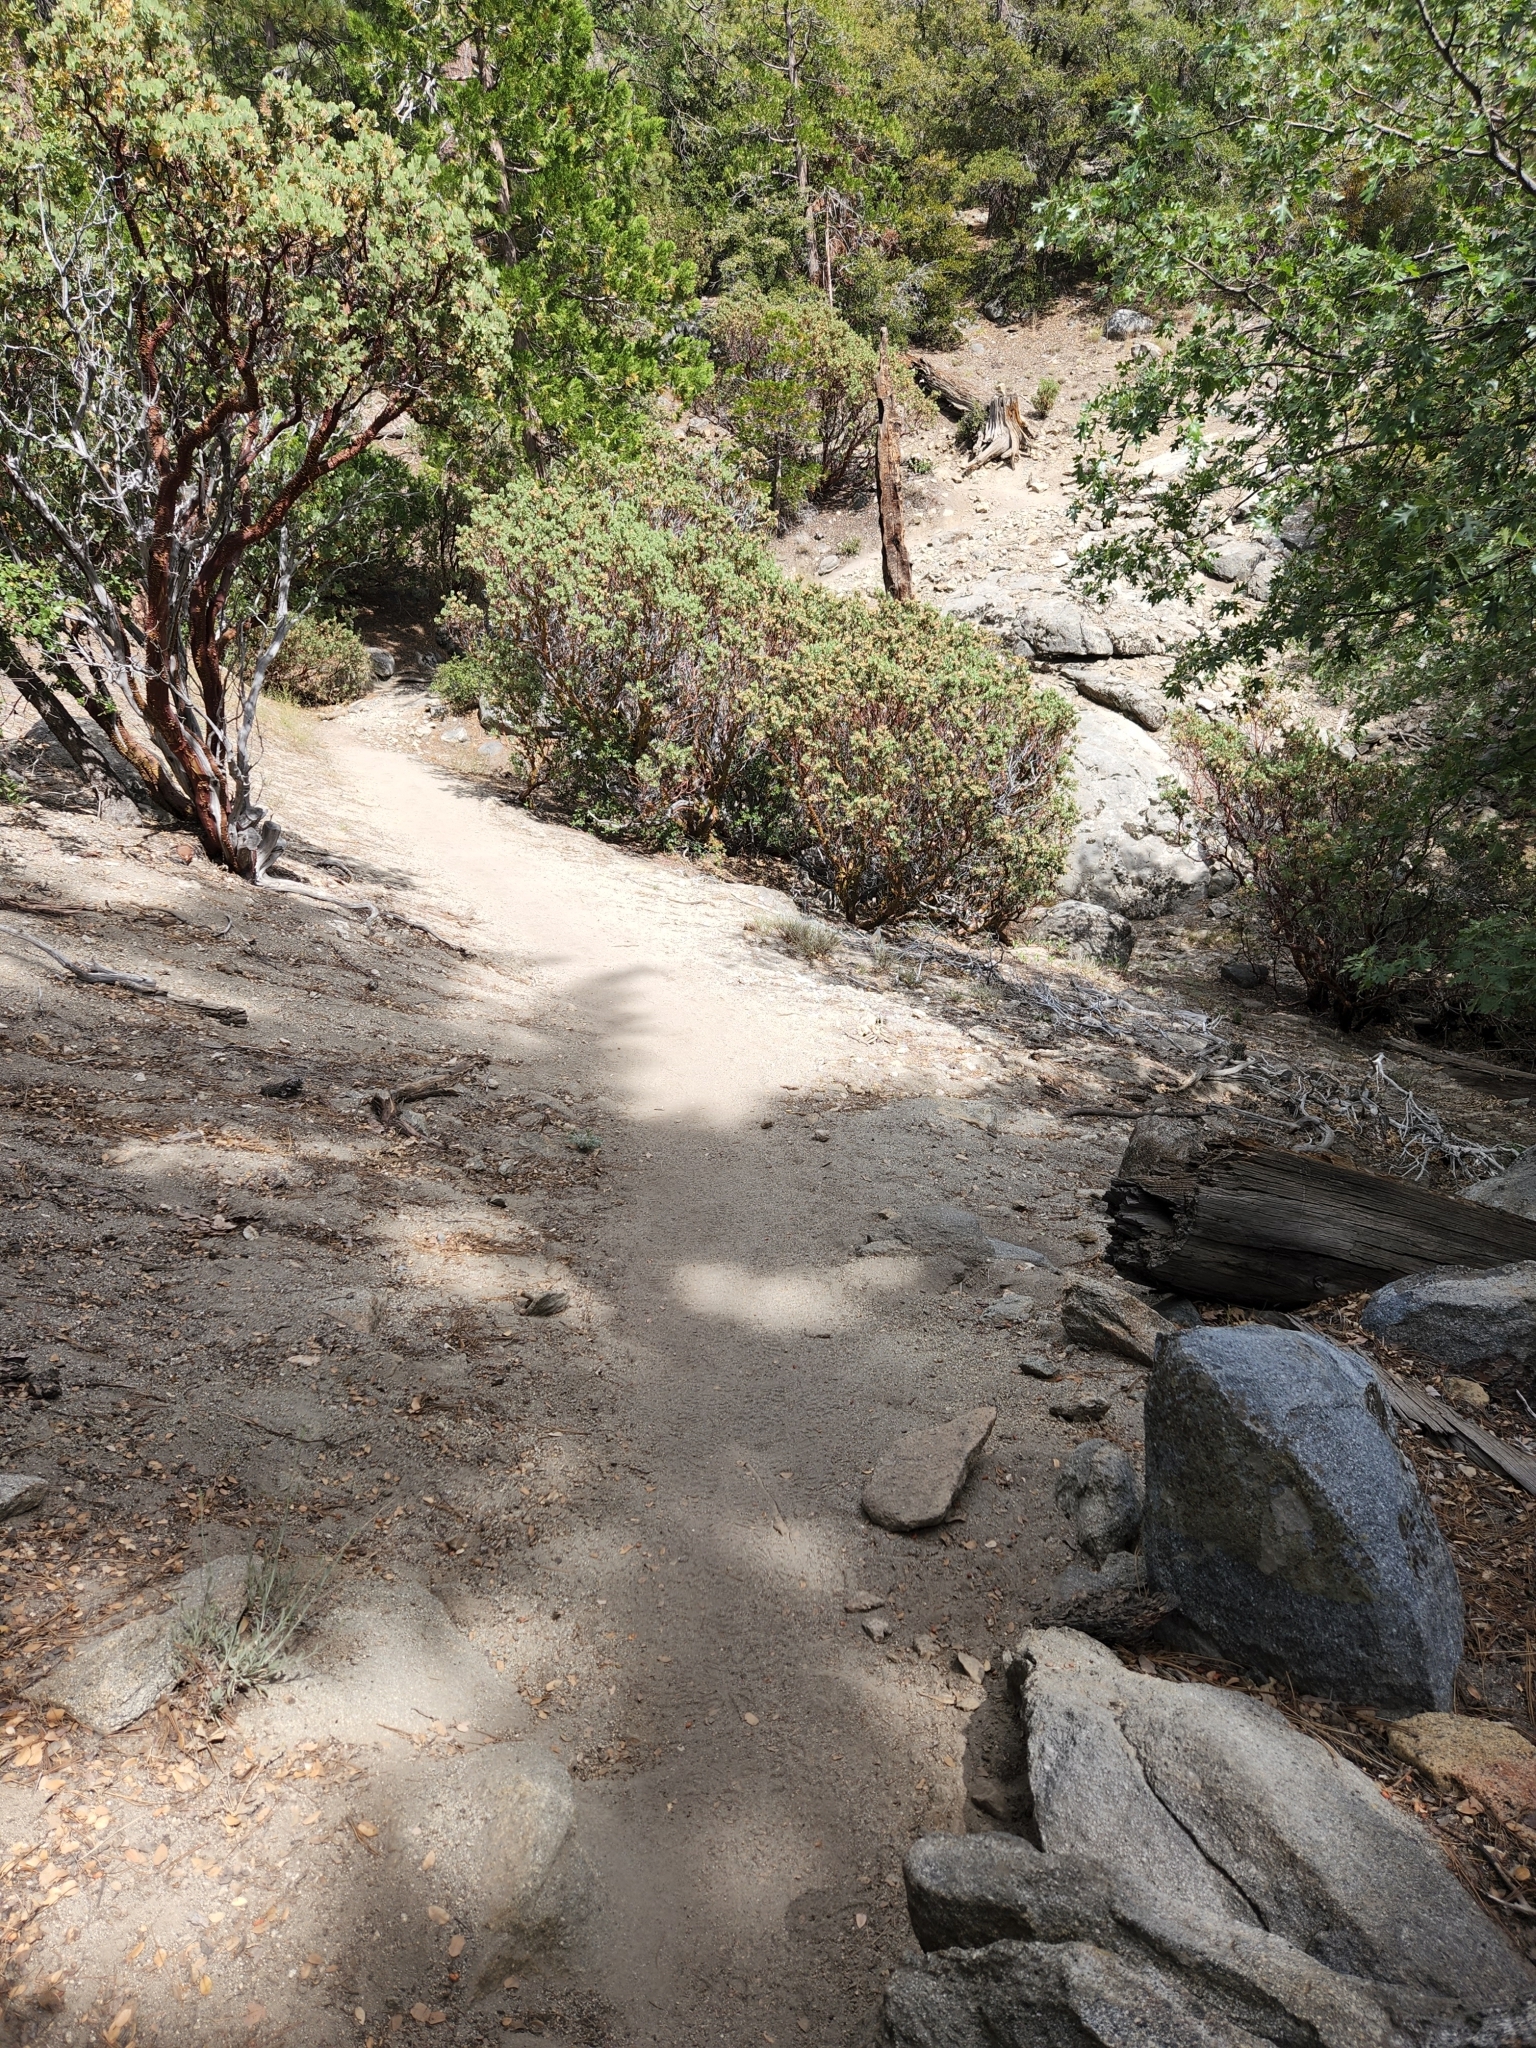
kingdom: Animalia
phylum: Chordata
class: Aves
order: Galliformes
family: Odontophoridae
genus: Oreortyx
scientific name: Oreortyx pictus
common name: Mountain quail
